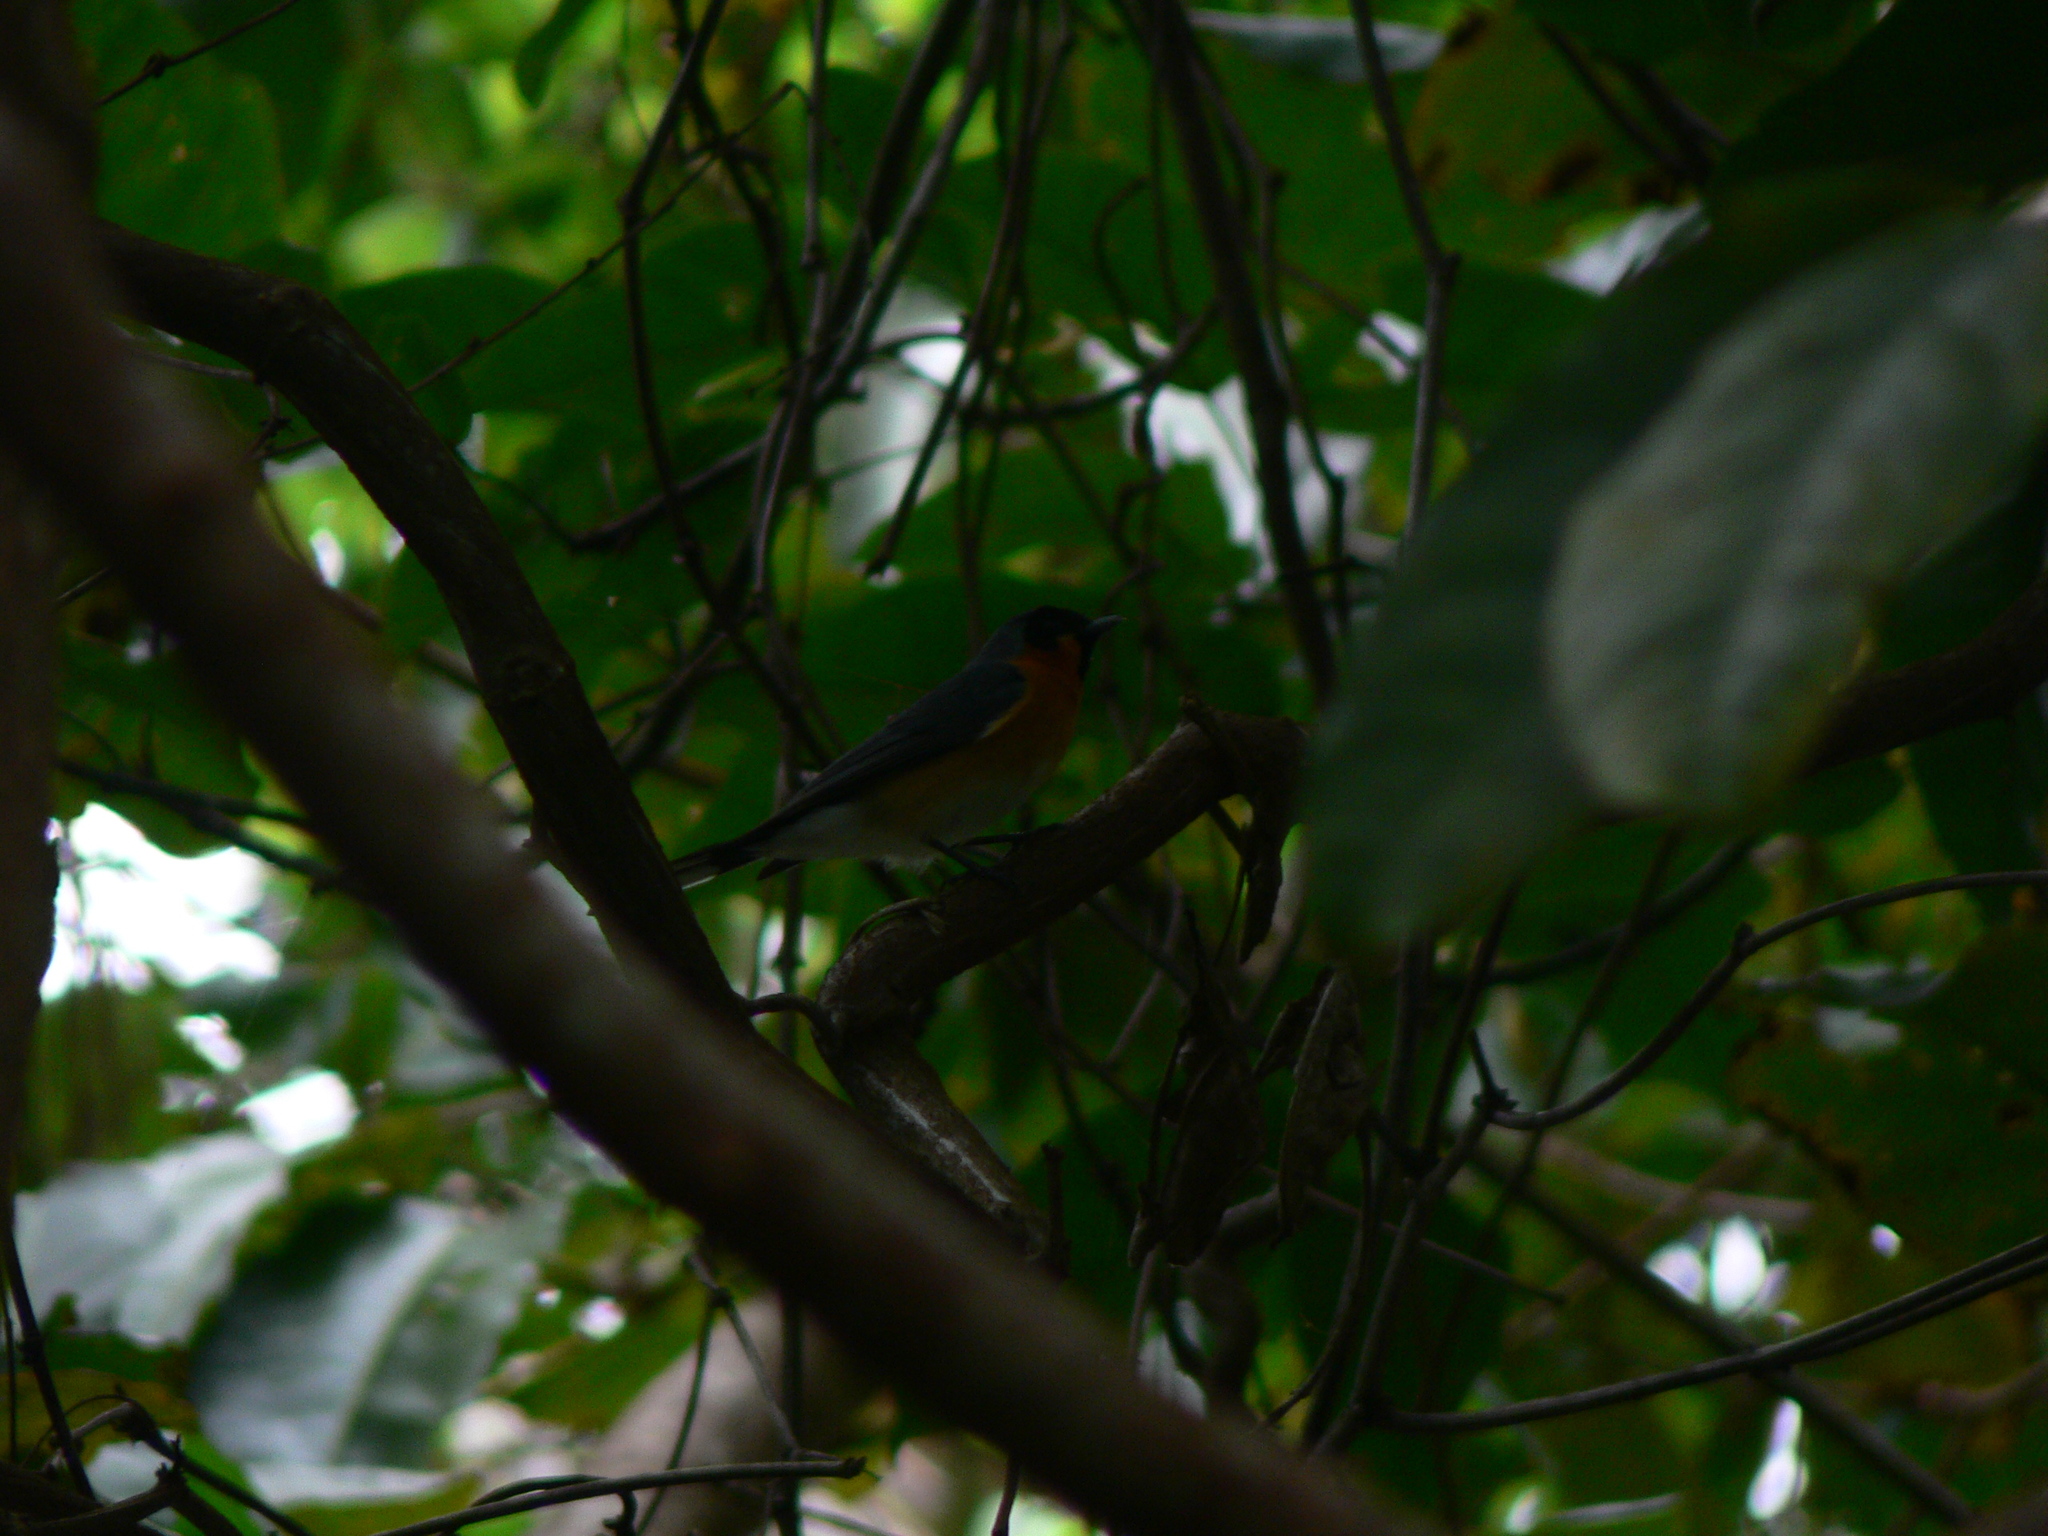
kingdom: Animalia
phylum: Chordata
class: Aves
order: Passeriformes
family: Monarchidae
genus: Symposiachrus
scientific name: Symposiachrus trivirgatus
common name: Spectacled monarch
